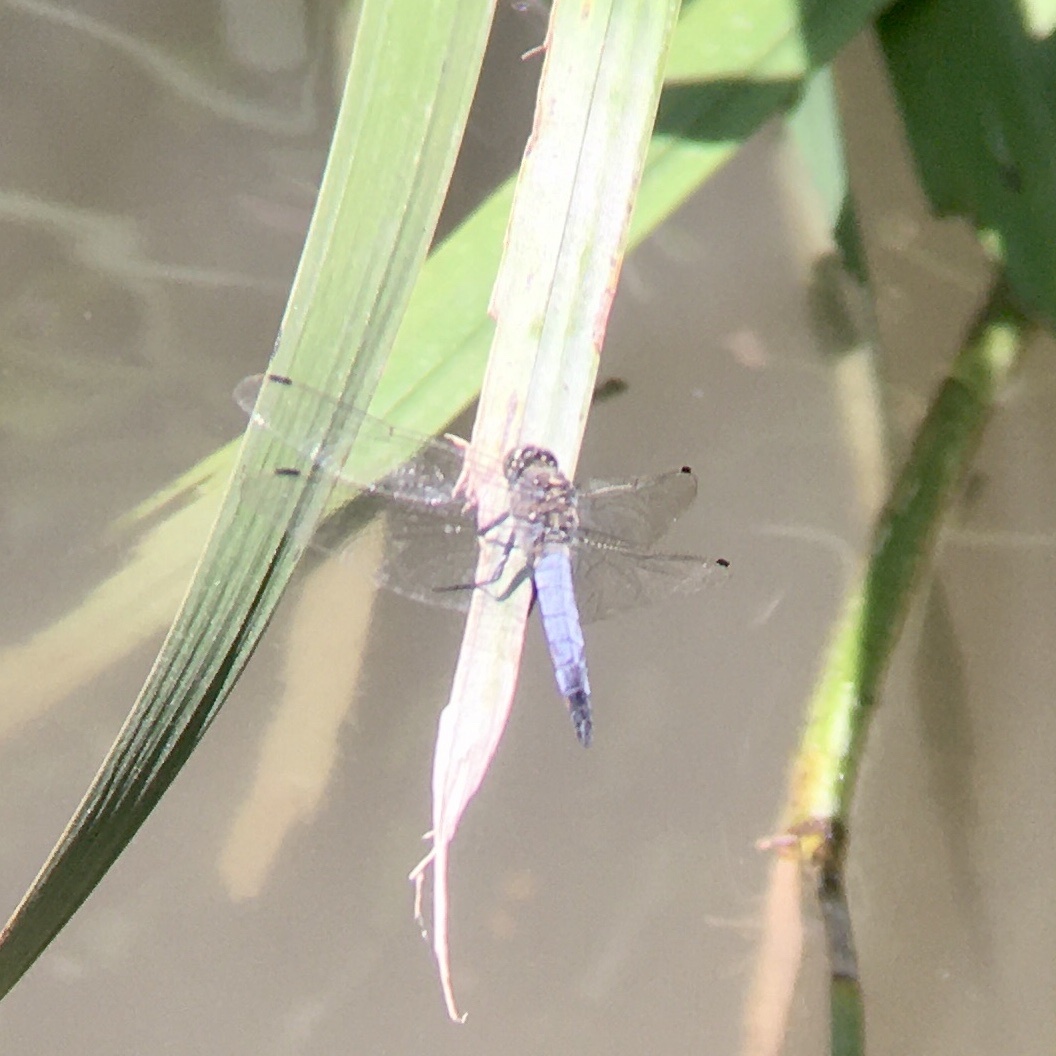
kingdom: Animalia
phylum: Arthropoda
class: Insecta
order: Odonata
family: Libellulidae
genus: Orthetrum
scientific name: Orthetrum cancellatum
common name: Black-tailed skimmer
